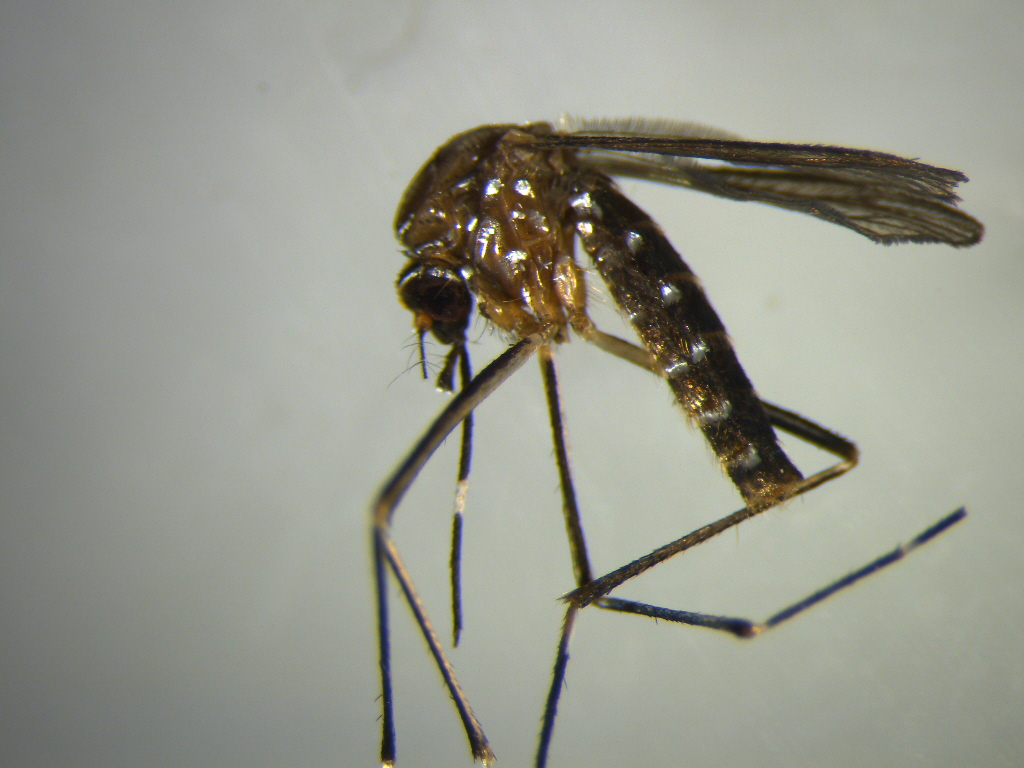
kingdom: Animalia
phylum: Arthropoda
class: Insecta
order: Diptera
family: Culicidae
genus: Aedes
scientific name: Aedes notoscriptus
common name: Australian backyard mosquito
